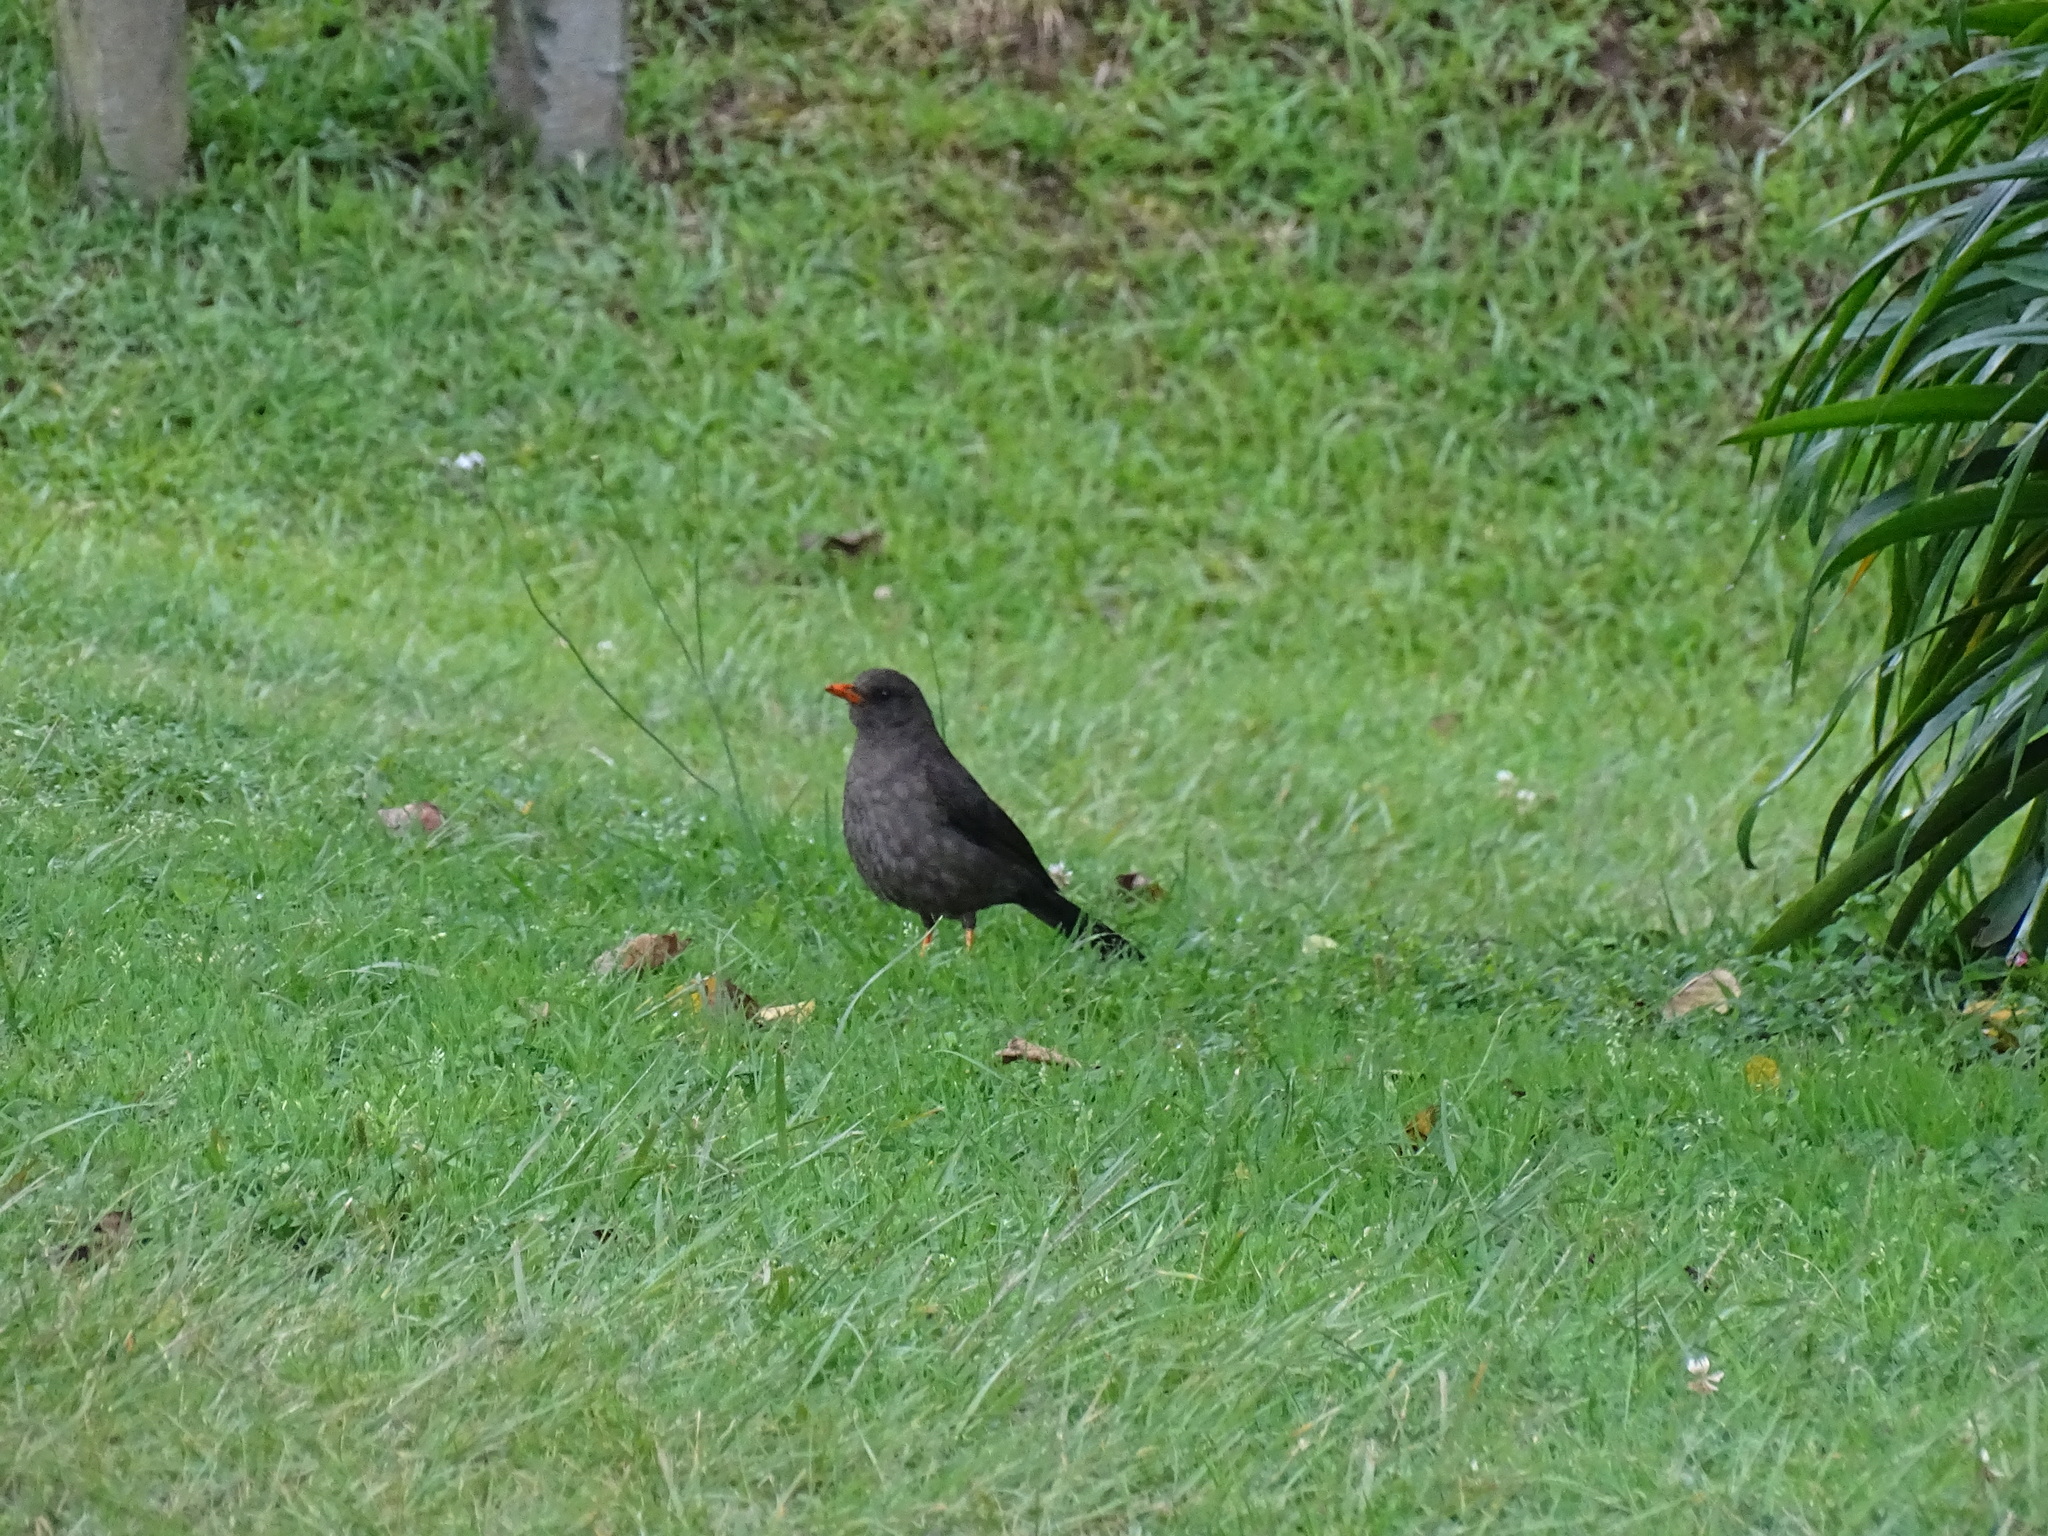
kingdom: Animalia
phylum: Chordata
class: Aves
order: Passeriformes
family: Turdidae
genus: Turdus
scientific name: Turdus fuscater
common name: Great thrush
